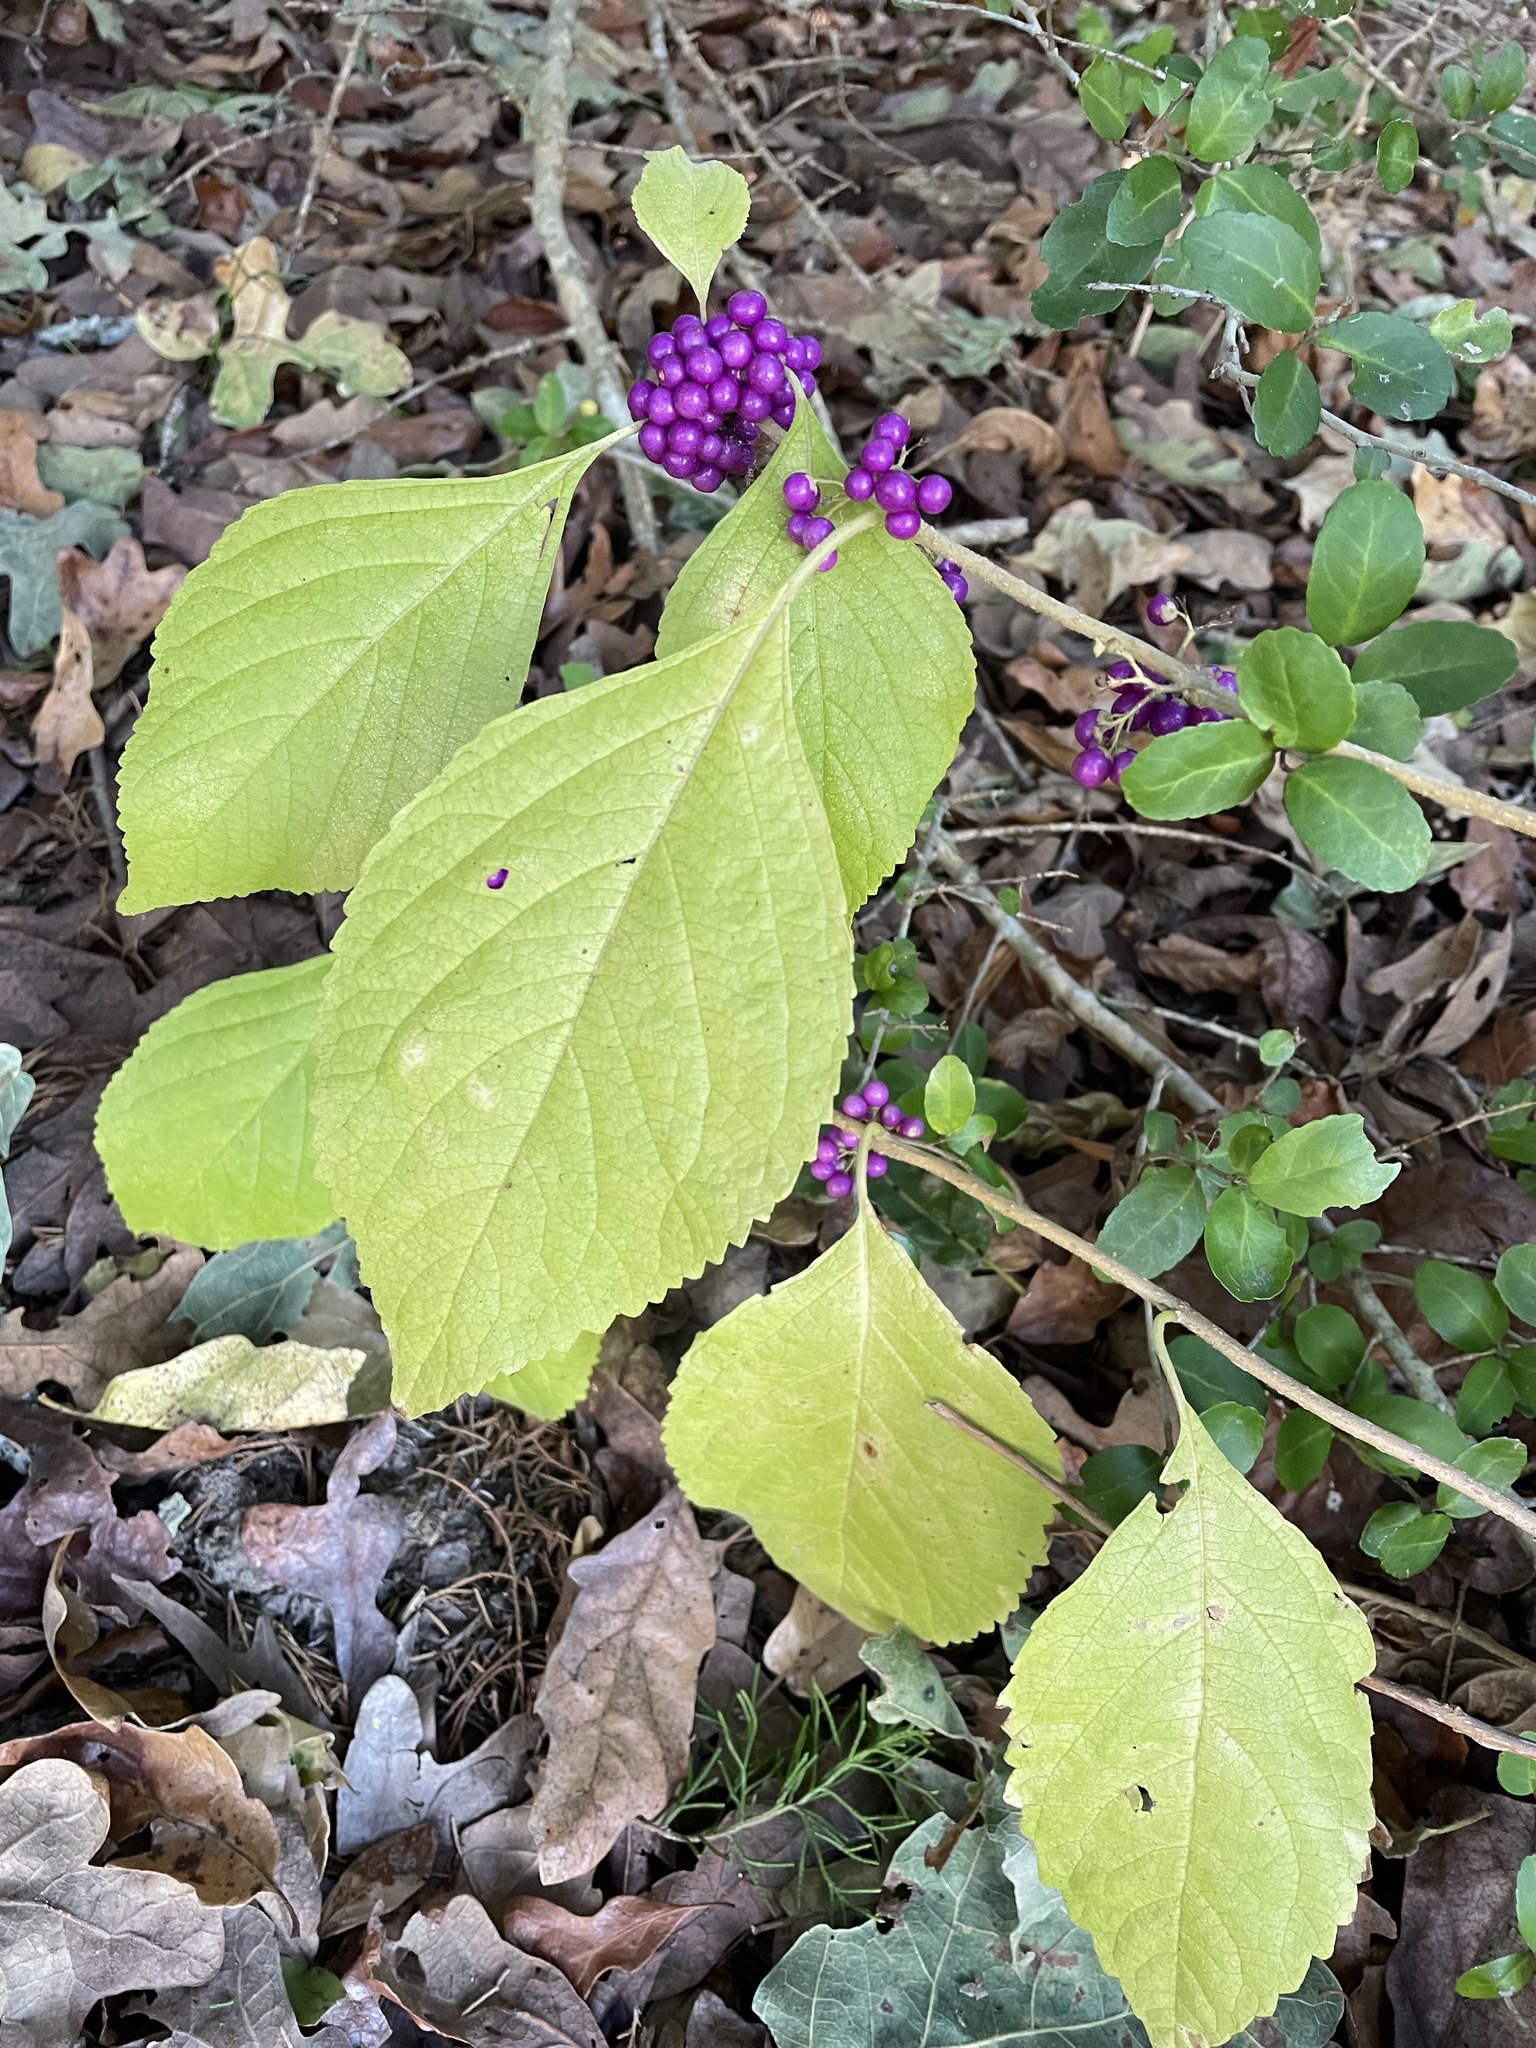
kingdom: Plantae
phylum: Tracheophyta
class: Magnoliopsida
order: Lamiales
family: Lamiaceae
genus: Callicarpa
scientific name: Callicarpa americana
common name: American beautyberry
